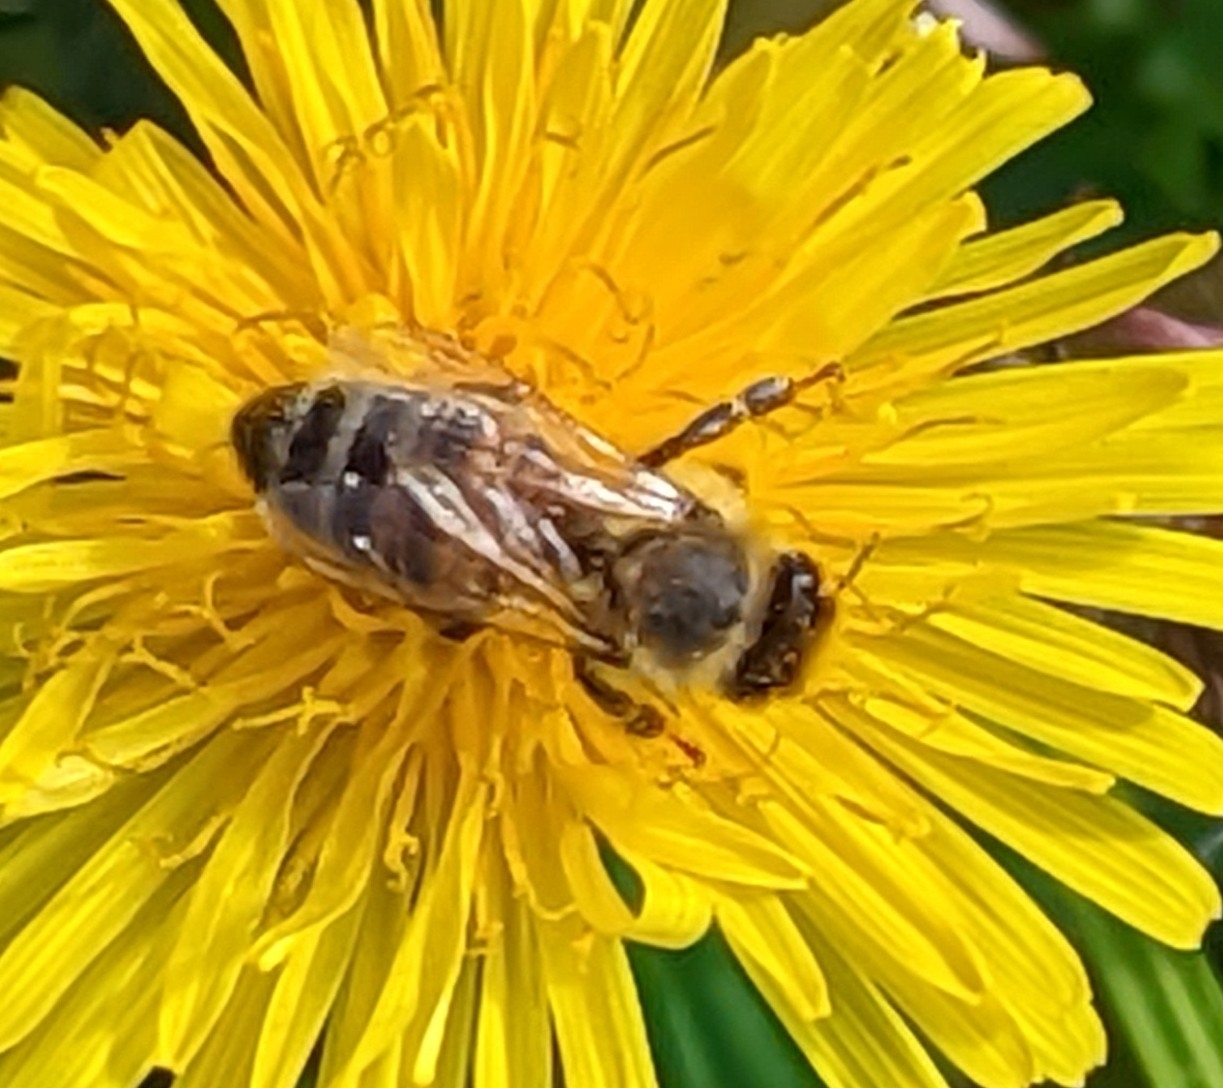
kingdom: Animalia
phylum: Arthropoda
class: Insecta
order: Hymenoptera
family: Apidae
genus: Apis
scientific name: Apis mellifera
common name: Honey bee
